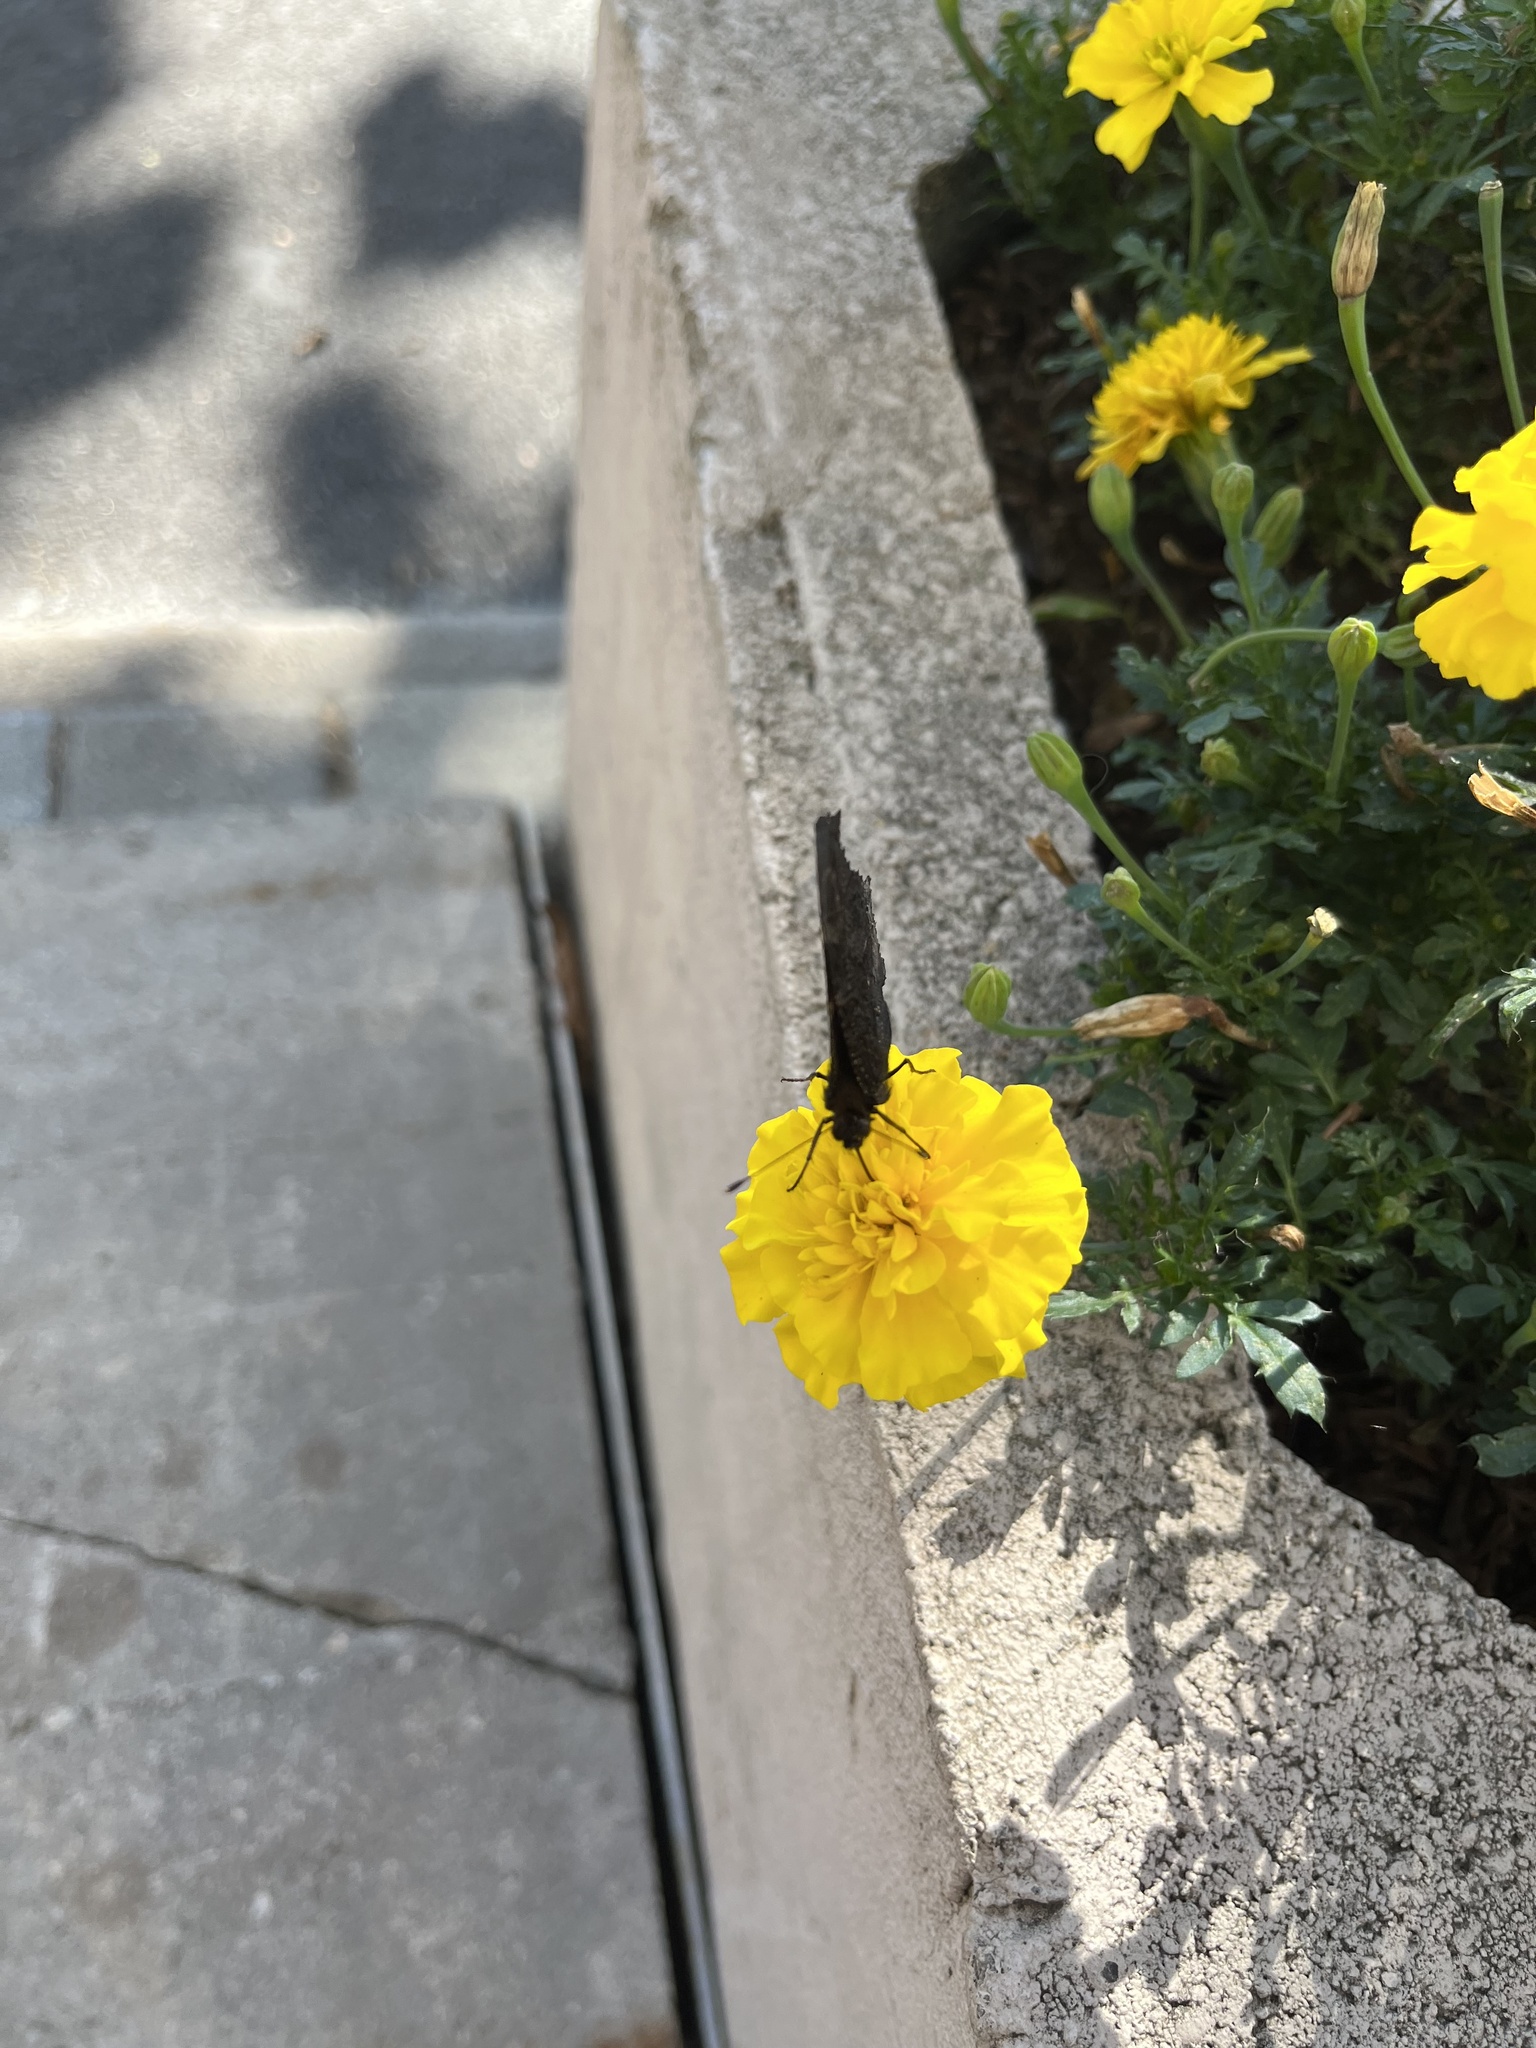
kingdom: Animalia
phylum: Arthropoda
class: Insecta
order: Lepidoptera
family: Nymphalidae
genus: Aglais
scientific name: Aglais io
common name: Peacock
